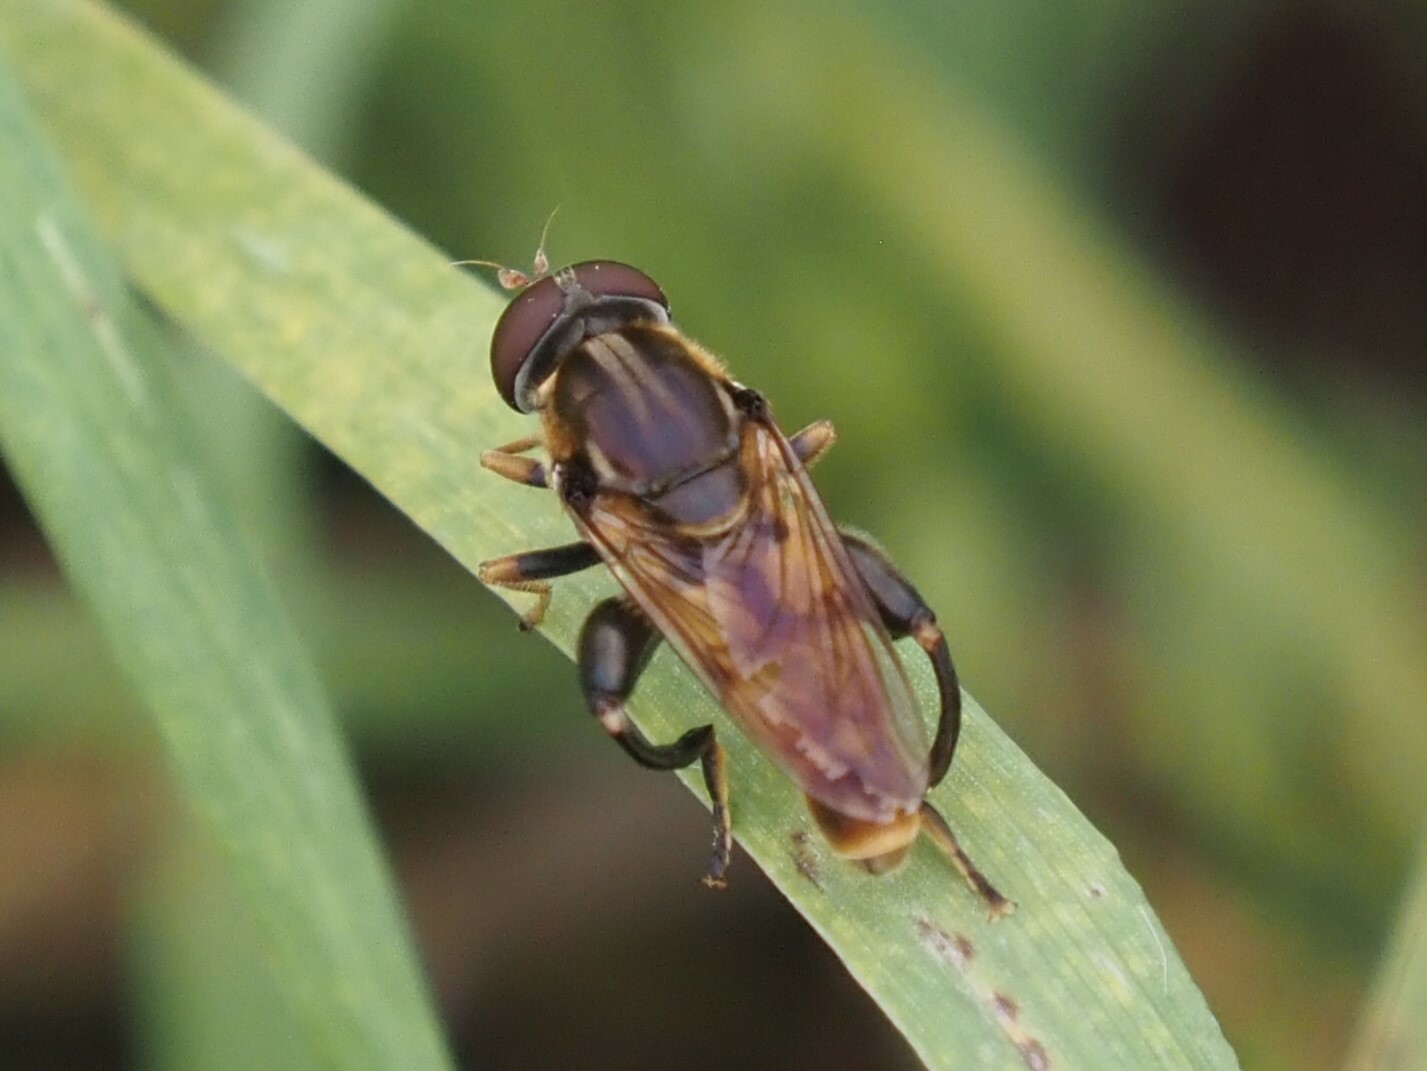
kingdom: Animalia
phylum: Arthropoda
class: Insecta
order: Diptera
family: Syrphidae
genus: Tropidia
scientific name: Tropidia quadrata
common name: Common thick-legged fly
